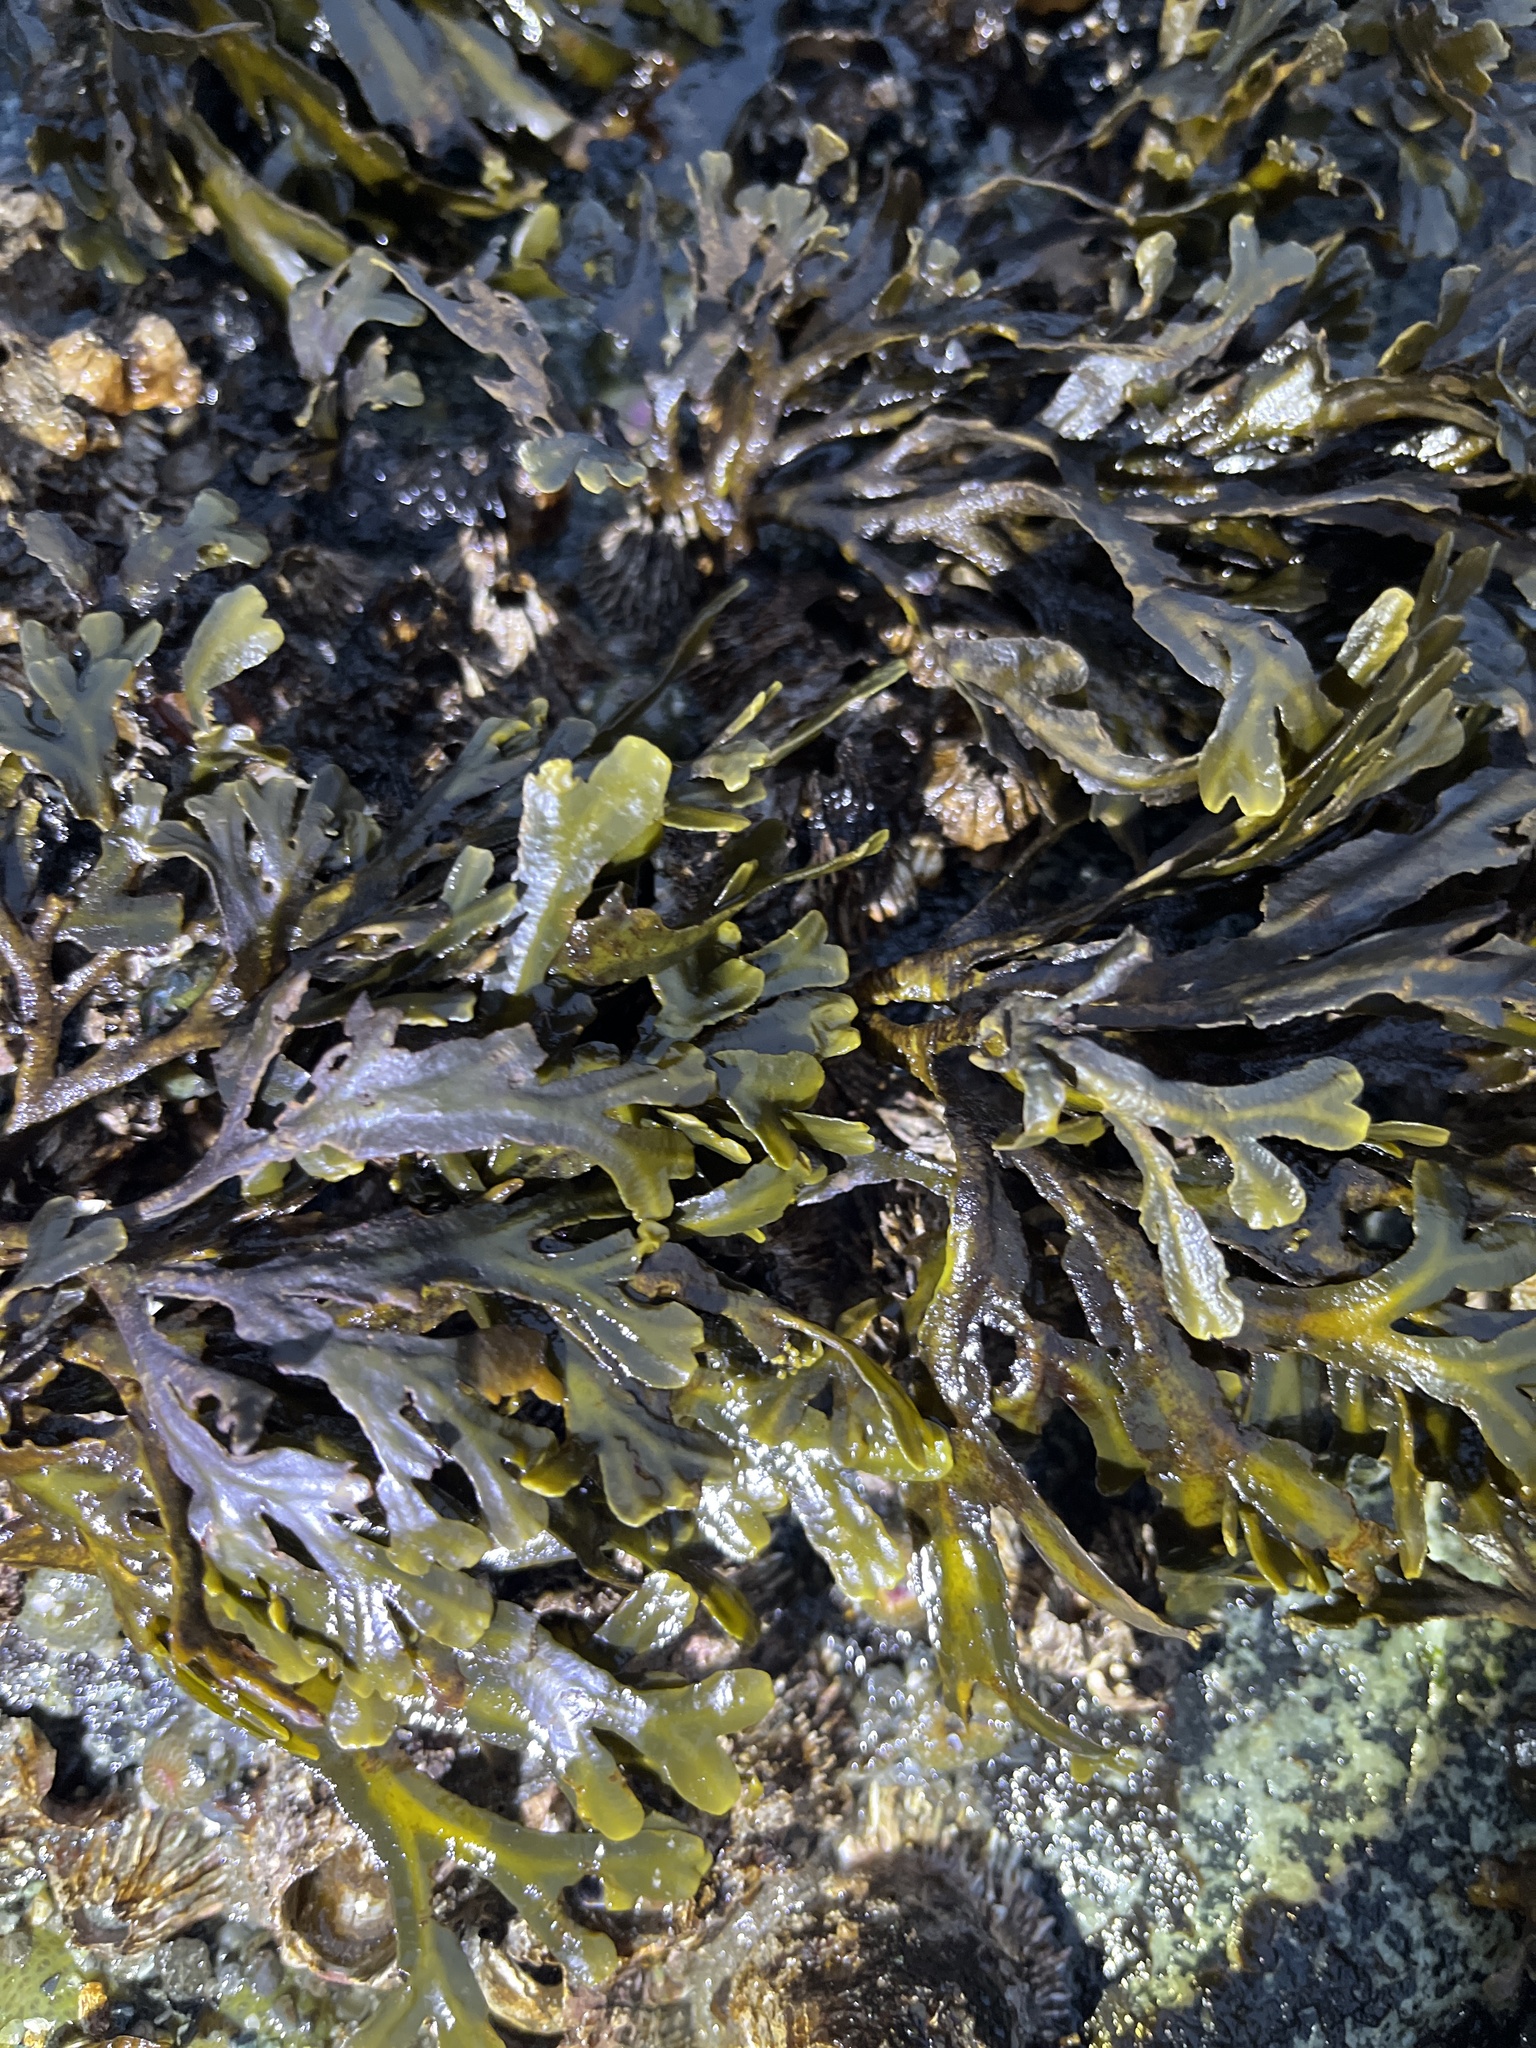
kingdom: Chromista
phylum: Ochrophyta
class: Phaeophyceae
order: Fucales
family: Fucaceae
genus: Fucus
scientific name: Fucus distichus
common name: Rockweed
